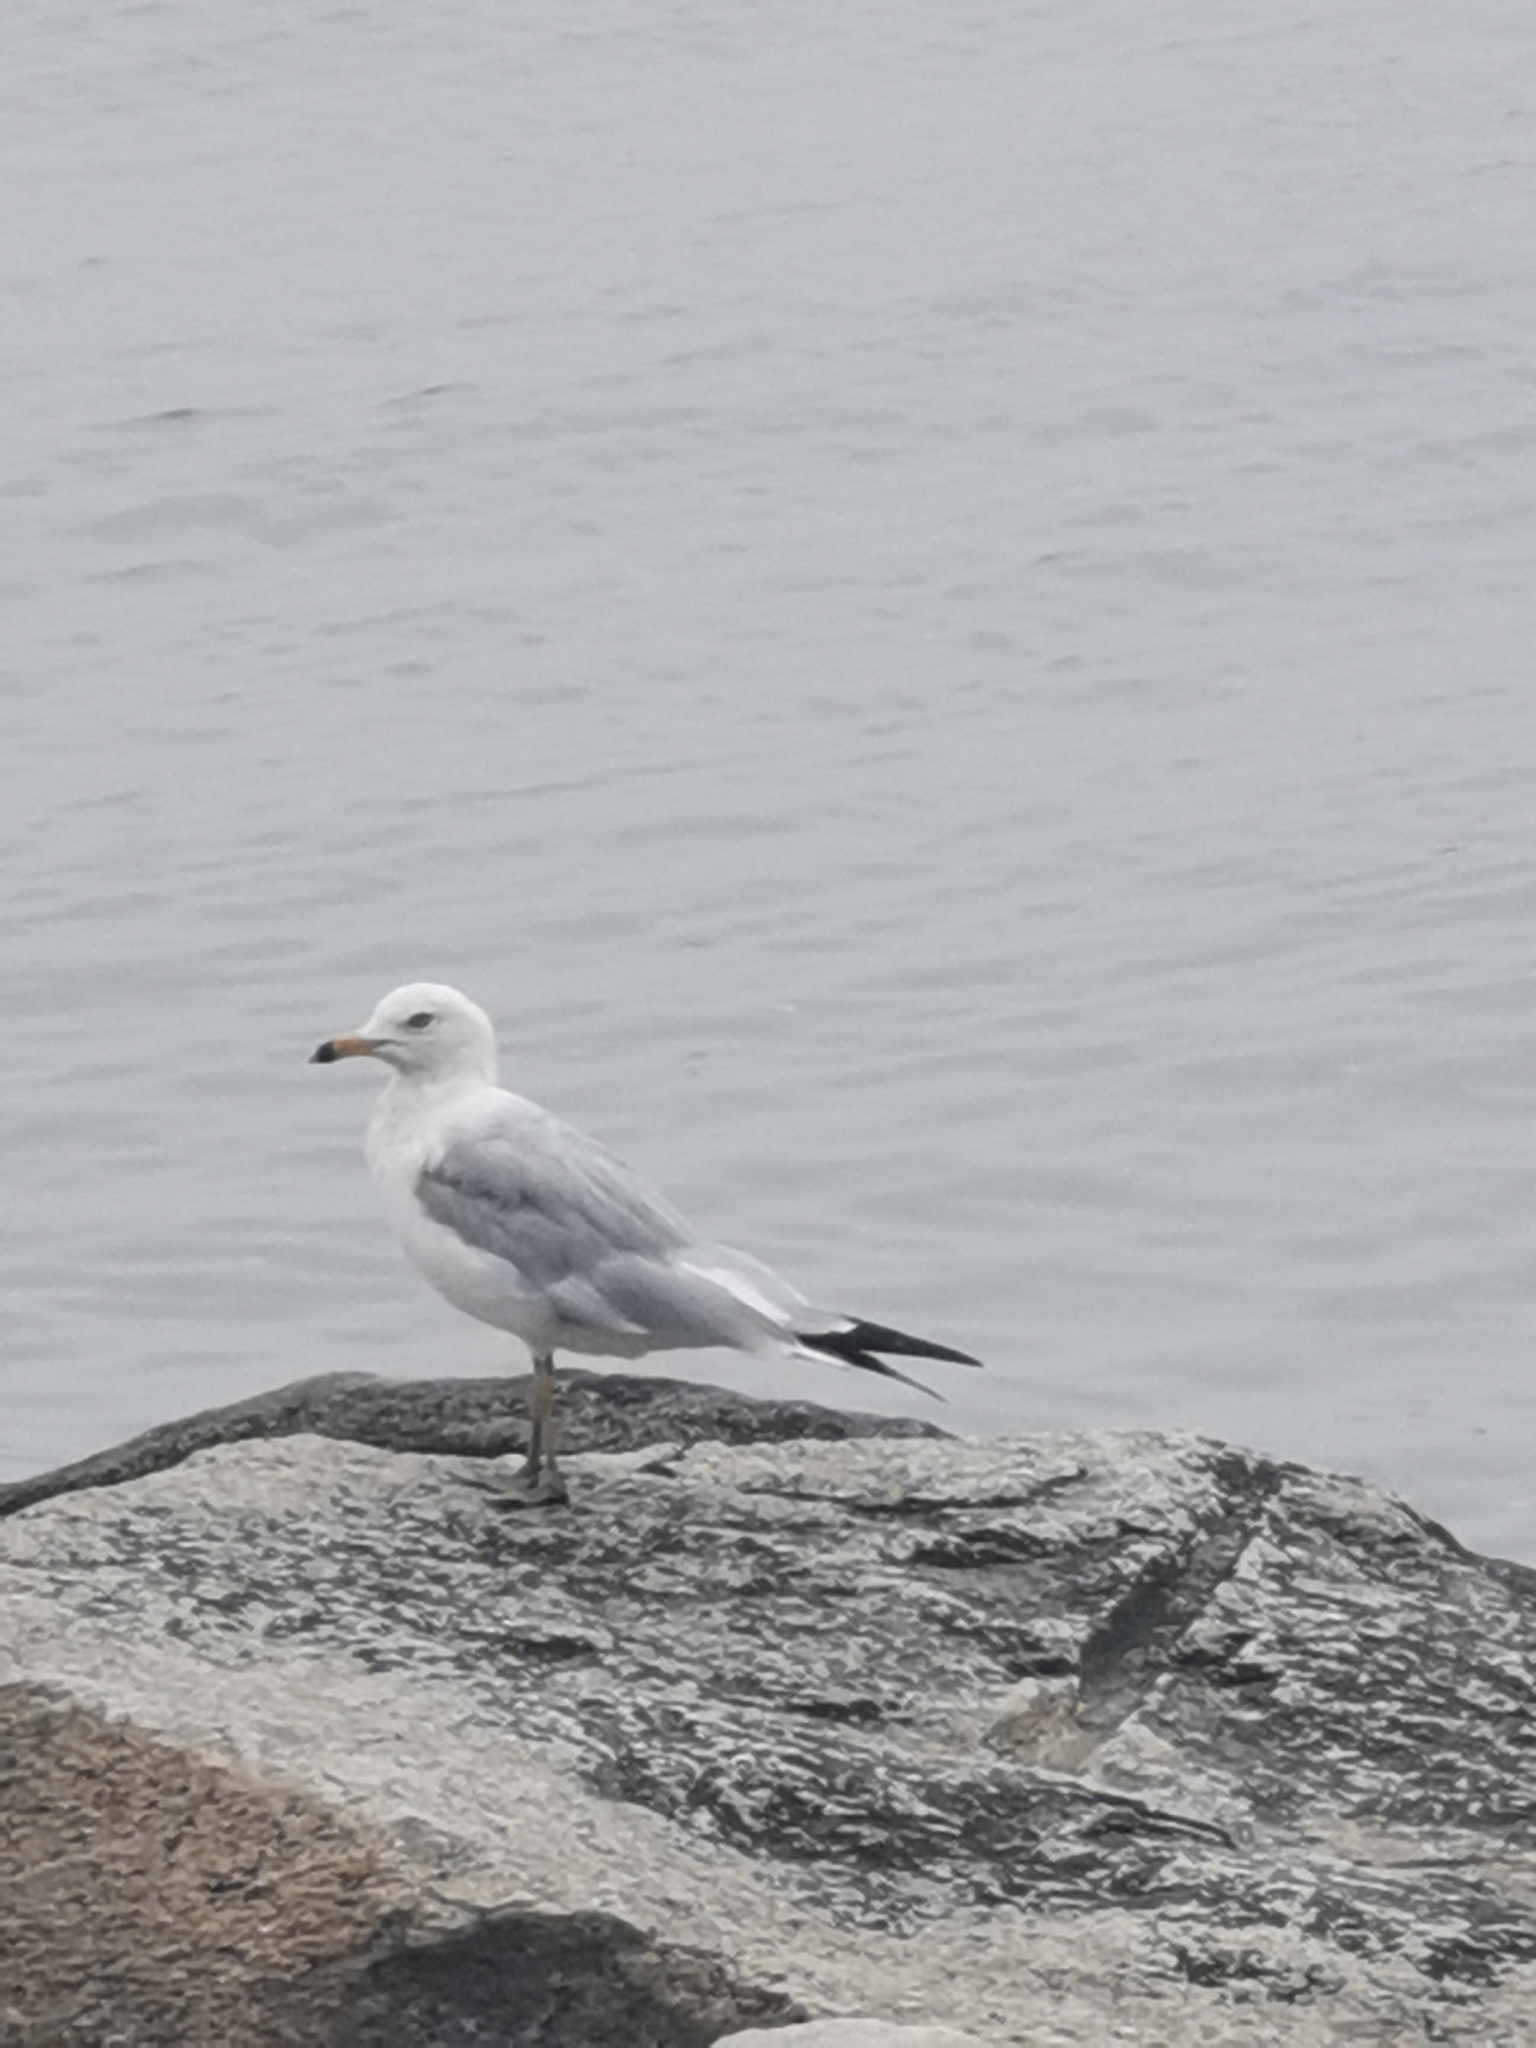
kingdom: Animalia
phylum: Chordata
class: Aves
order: Charadriiformes
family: Laridae
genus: Larus
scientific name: Larus delawarensis
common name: Ring-billed gull
